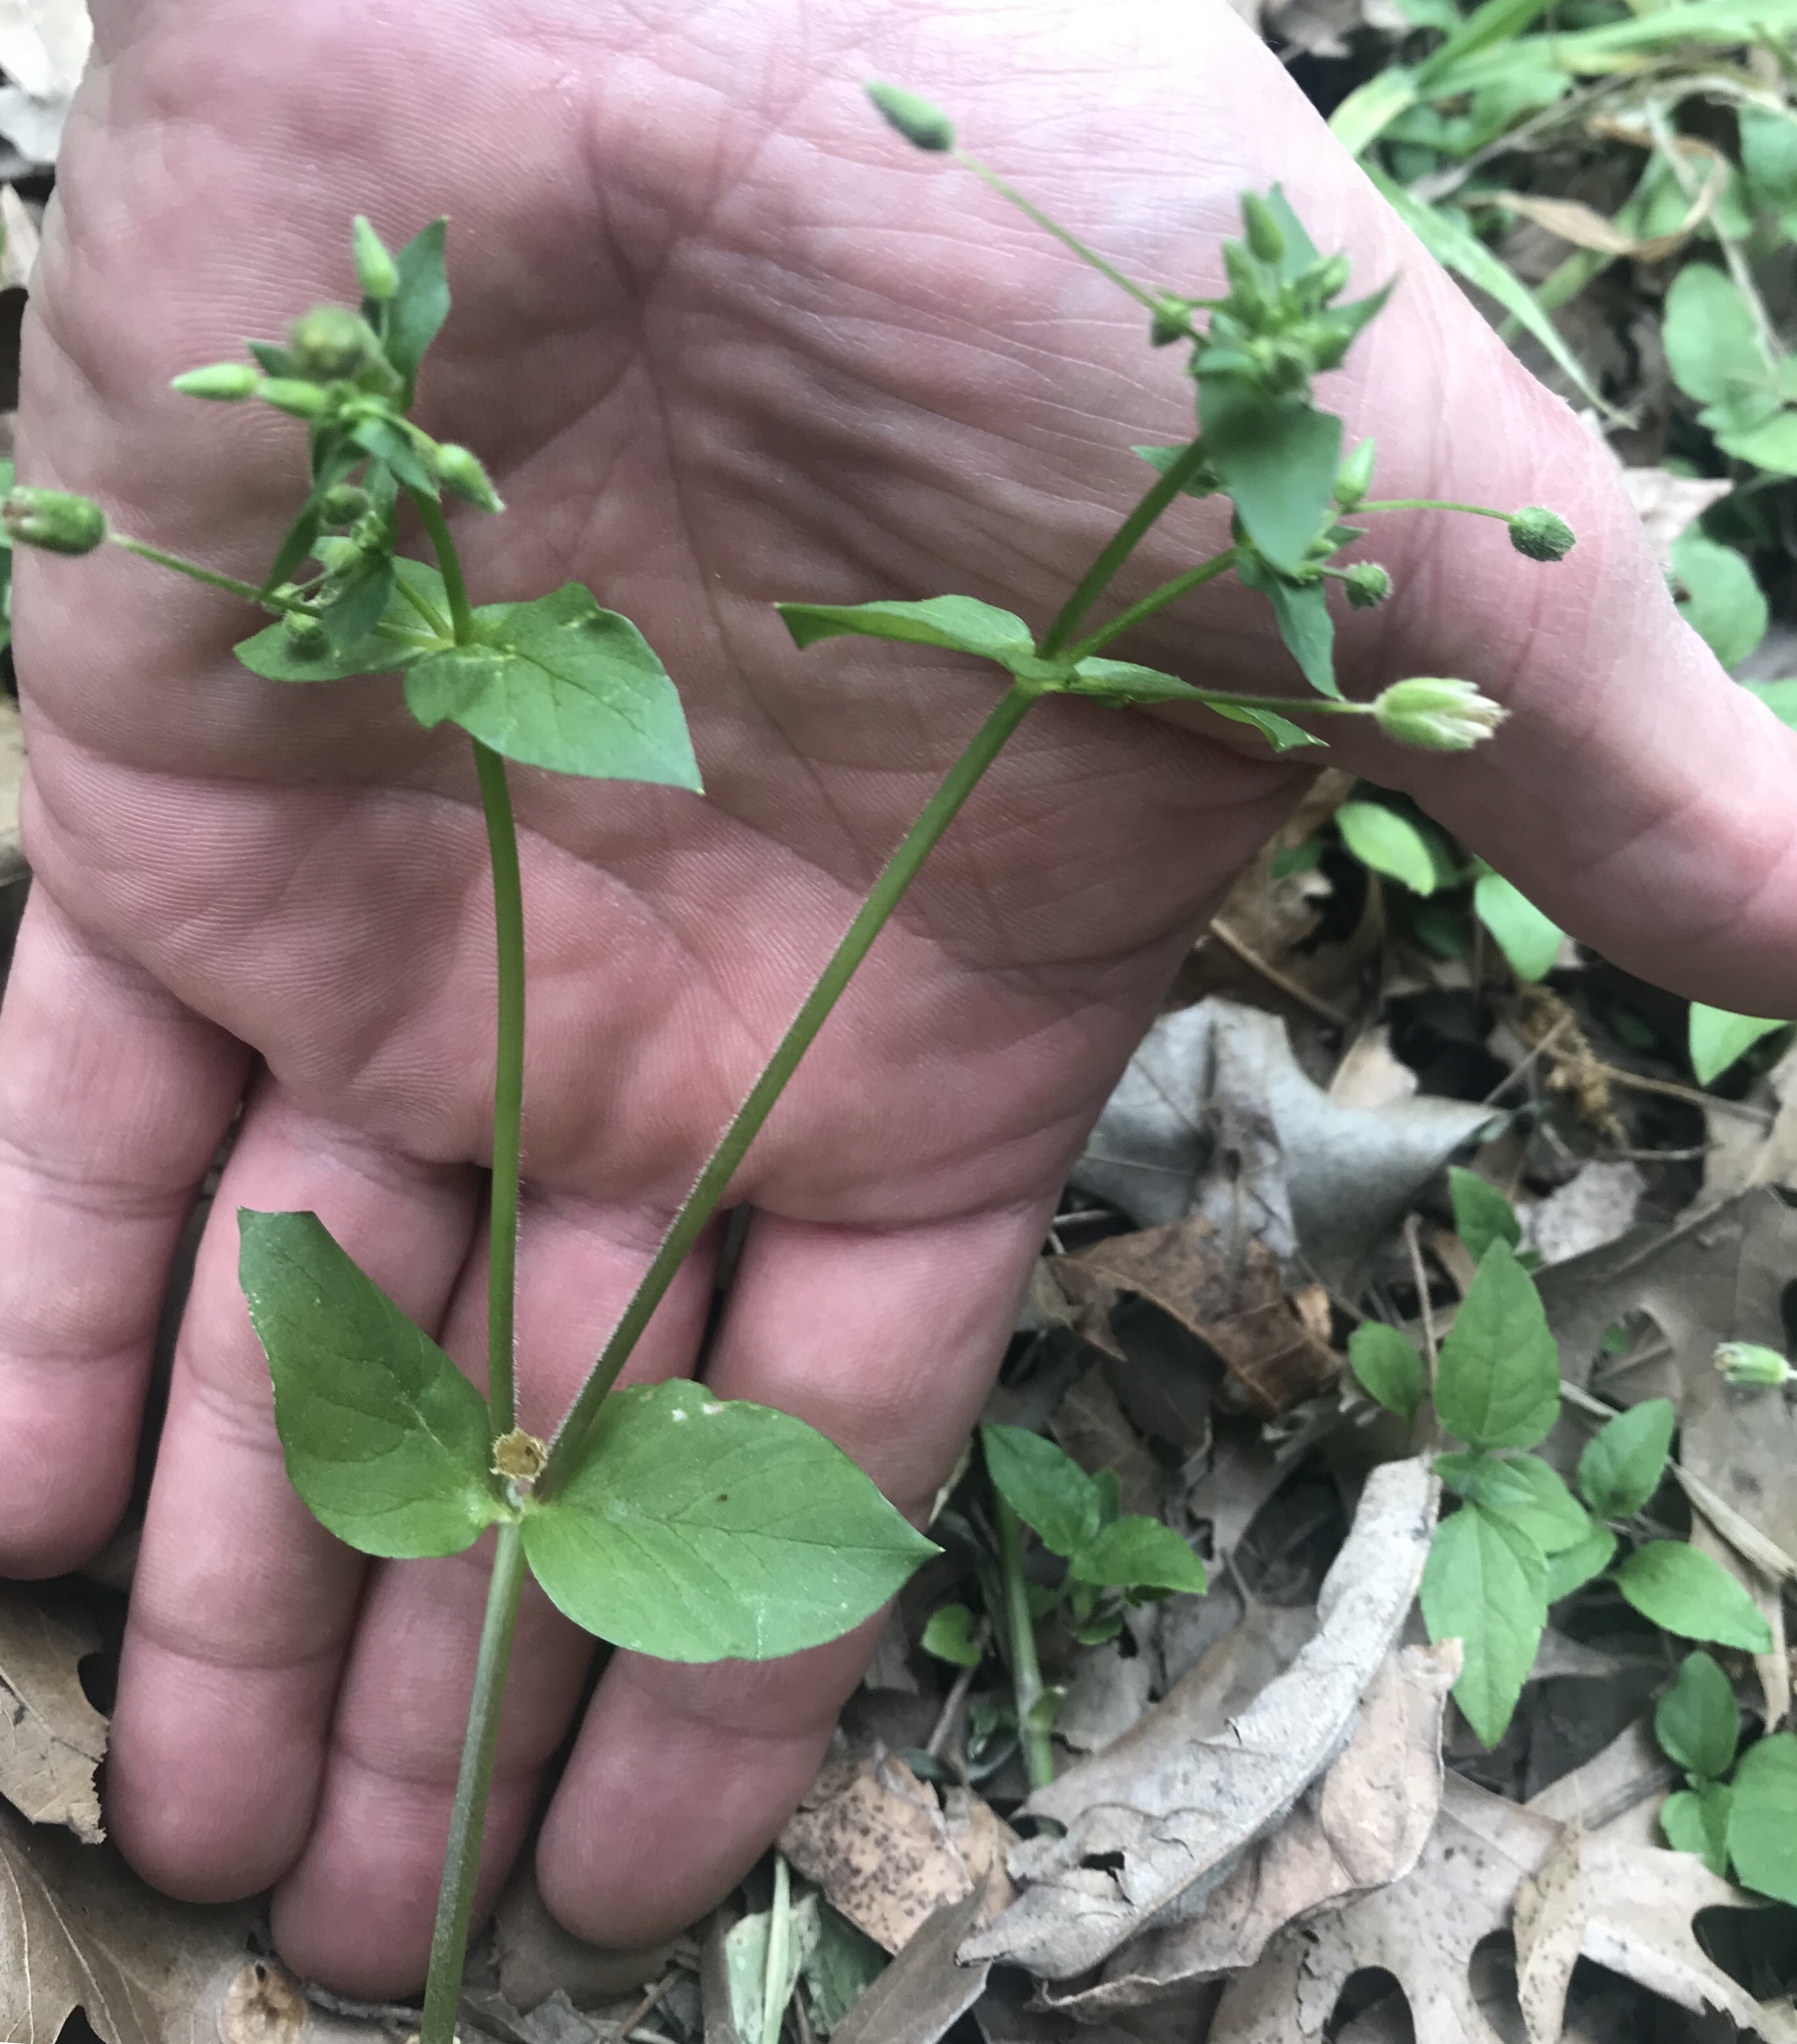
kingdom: Plantae
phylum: Tracheophyta
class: Magnoliopsida
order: Caryophyllales
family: Caryophyllaceae
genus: Stellaria
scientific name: Stellaria media
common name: Common chickweed
